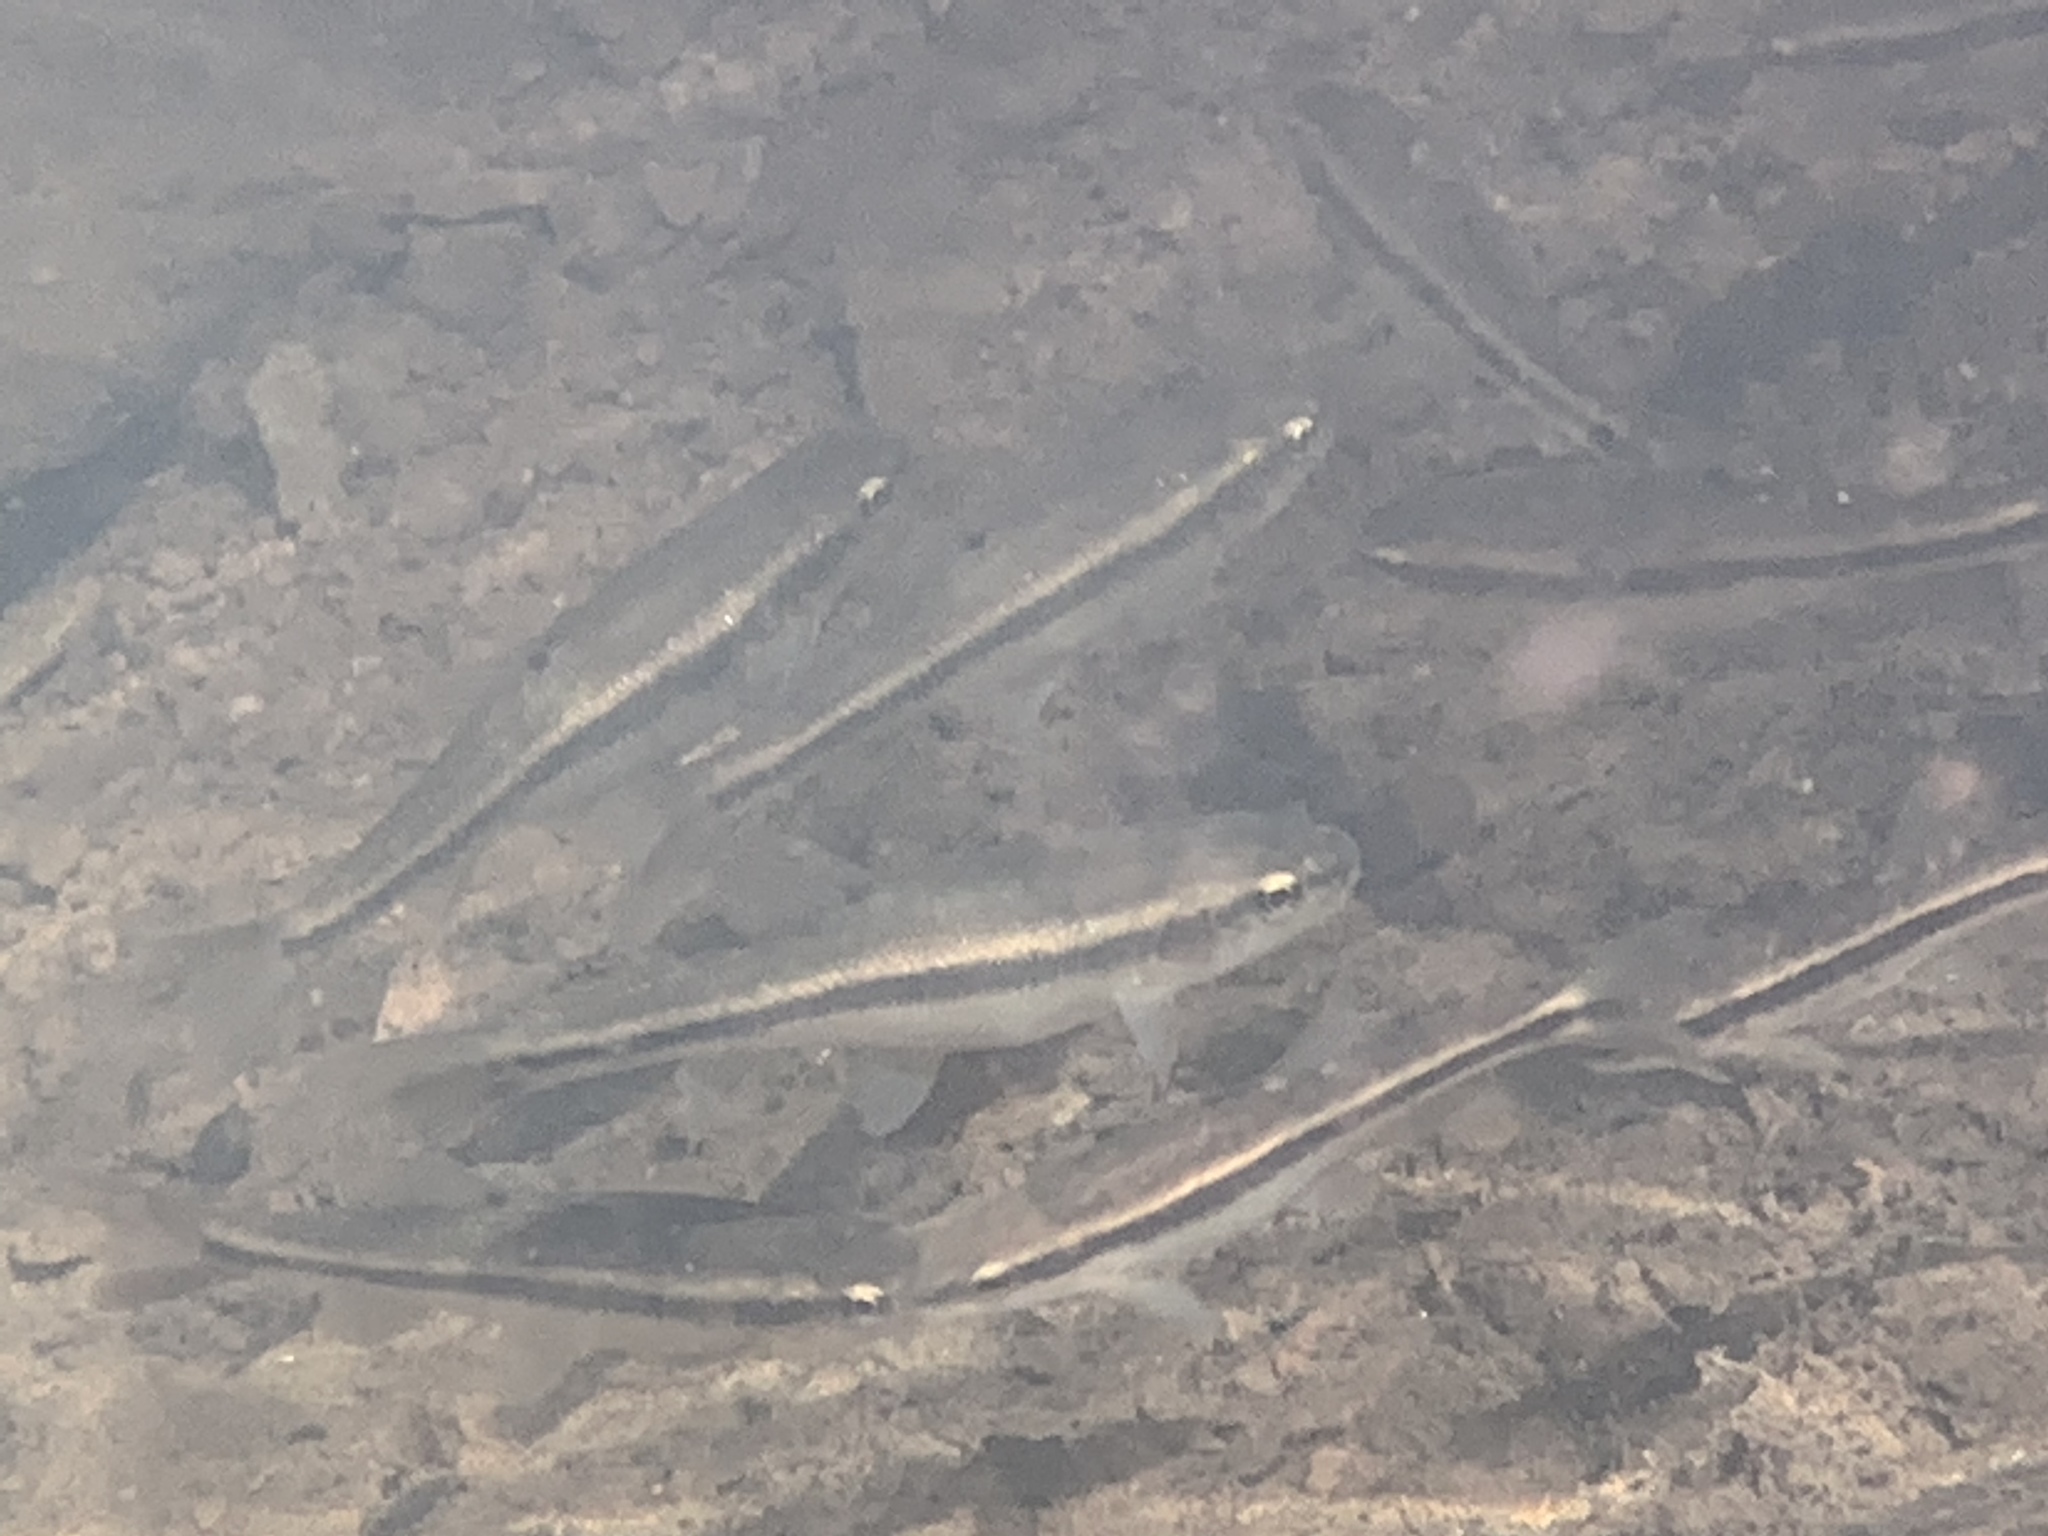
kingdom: Animalia
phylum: Chordata
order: Cypriniformes
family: Cyprinidae
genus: Semotilus
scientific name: Semotilus atromaculatus
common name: Creek chub
